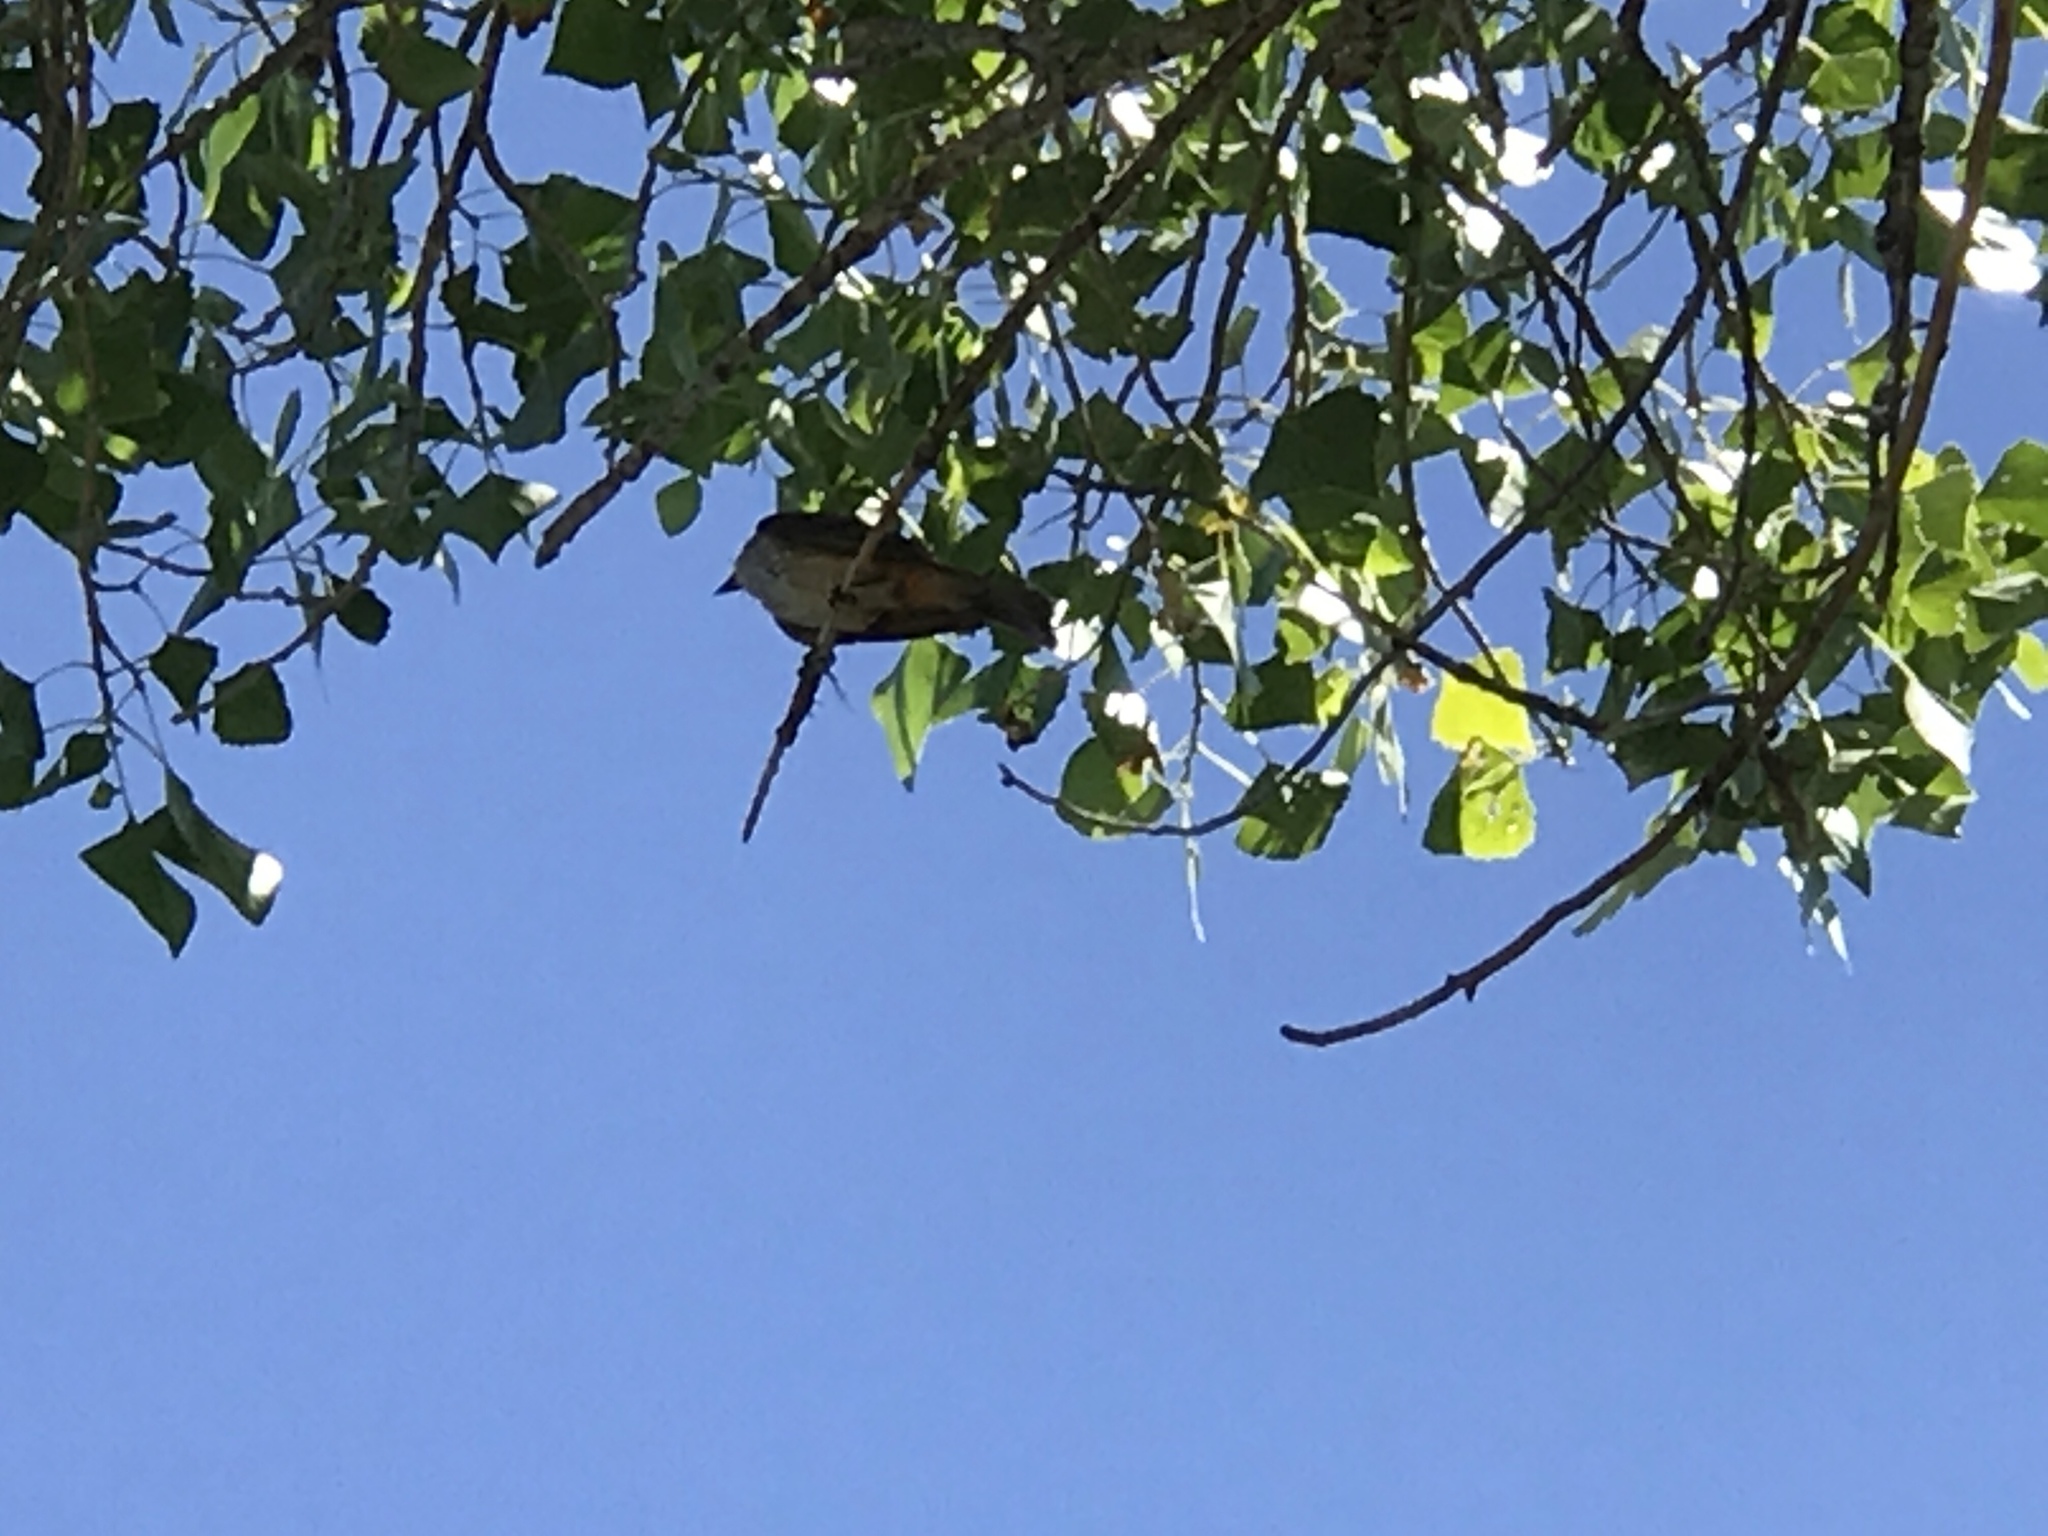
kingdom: Animalia
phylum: Chordata
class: Aves
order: Passeriformes
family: Tyrannidae
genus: Pyrocephalus
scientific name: Pyrocephalus rubinus
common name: Vermilion flycatcher
